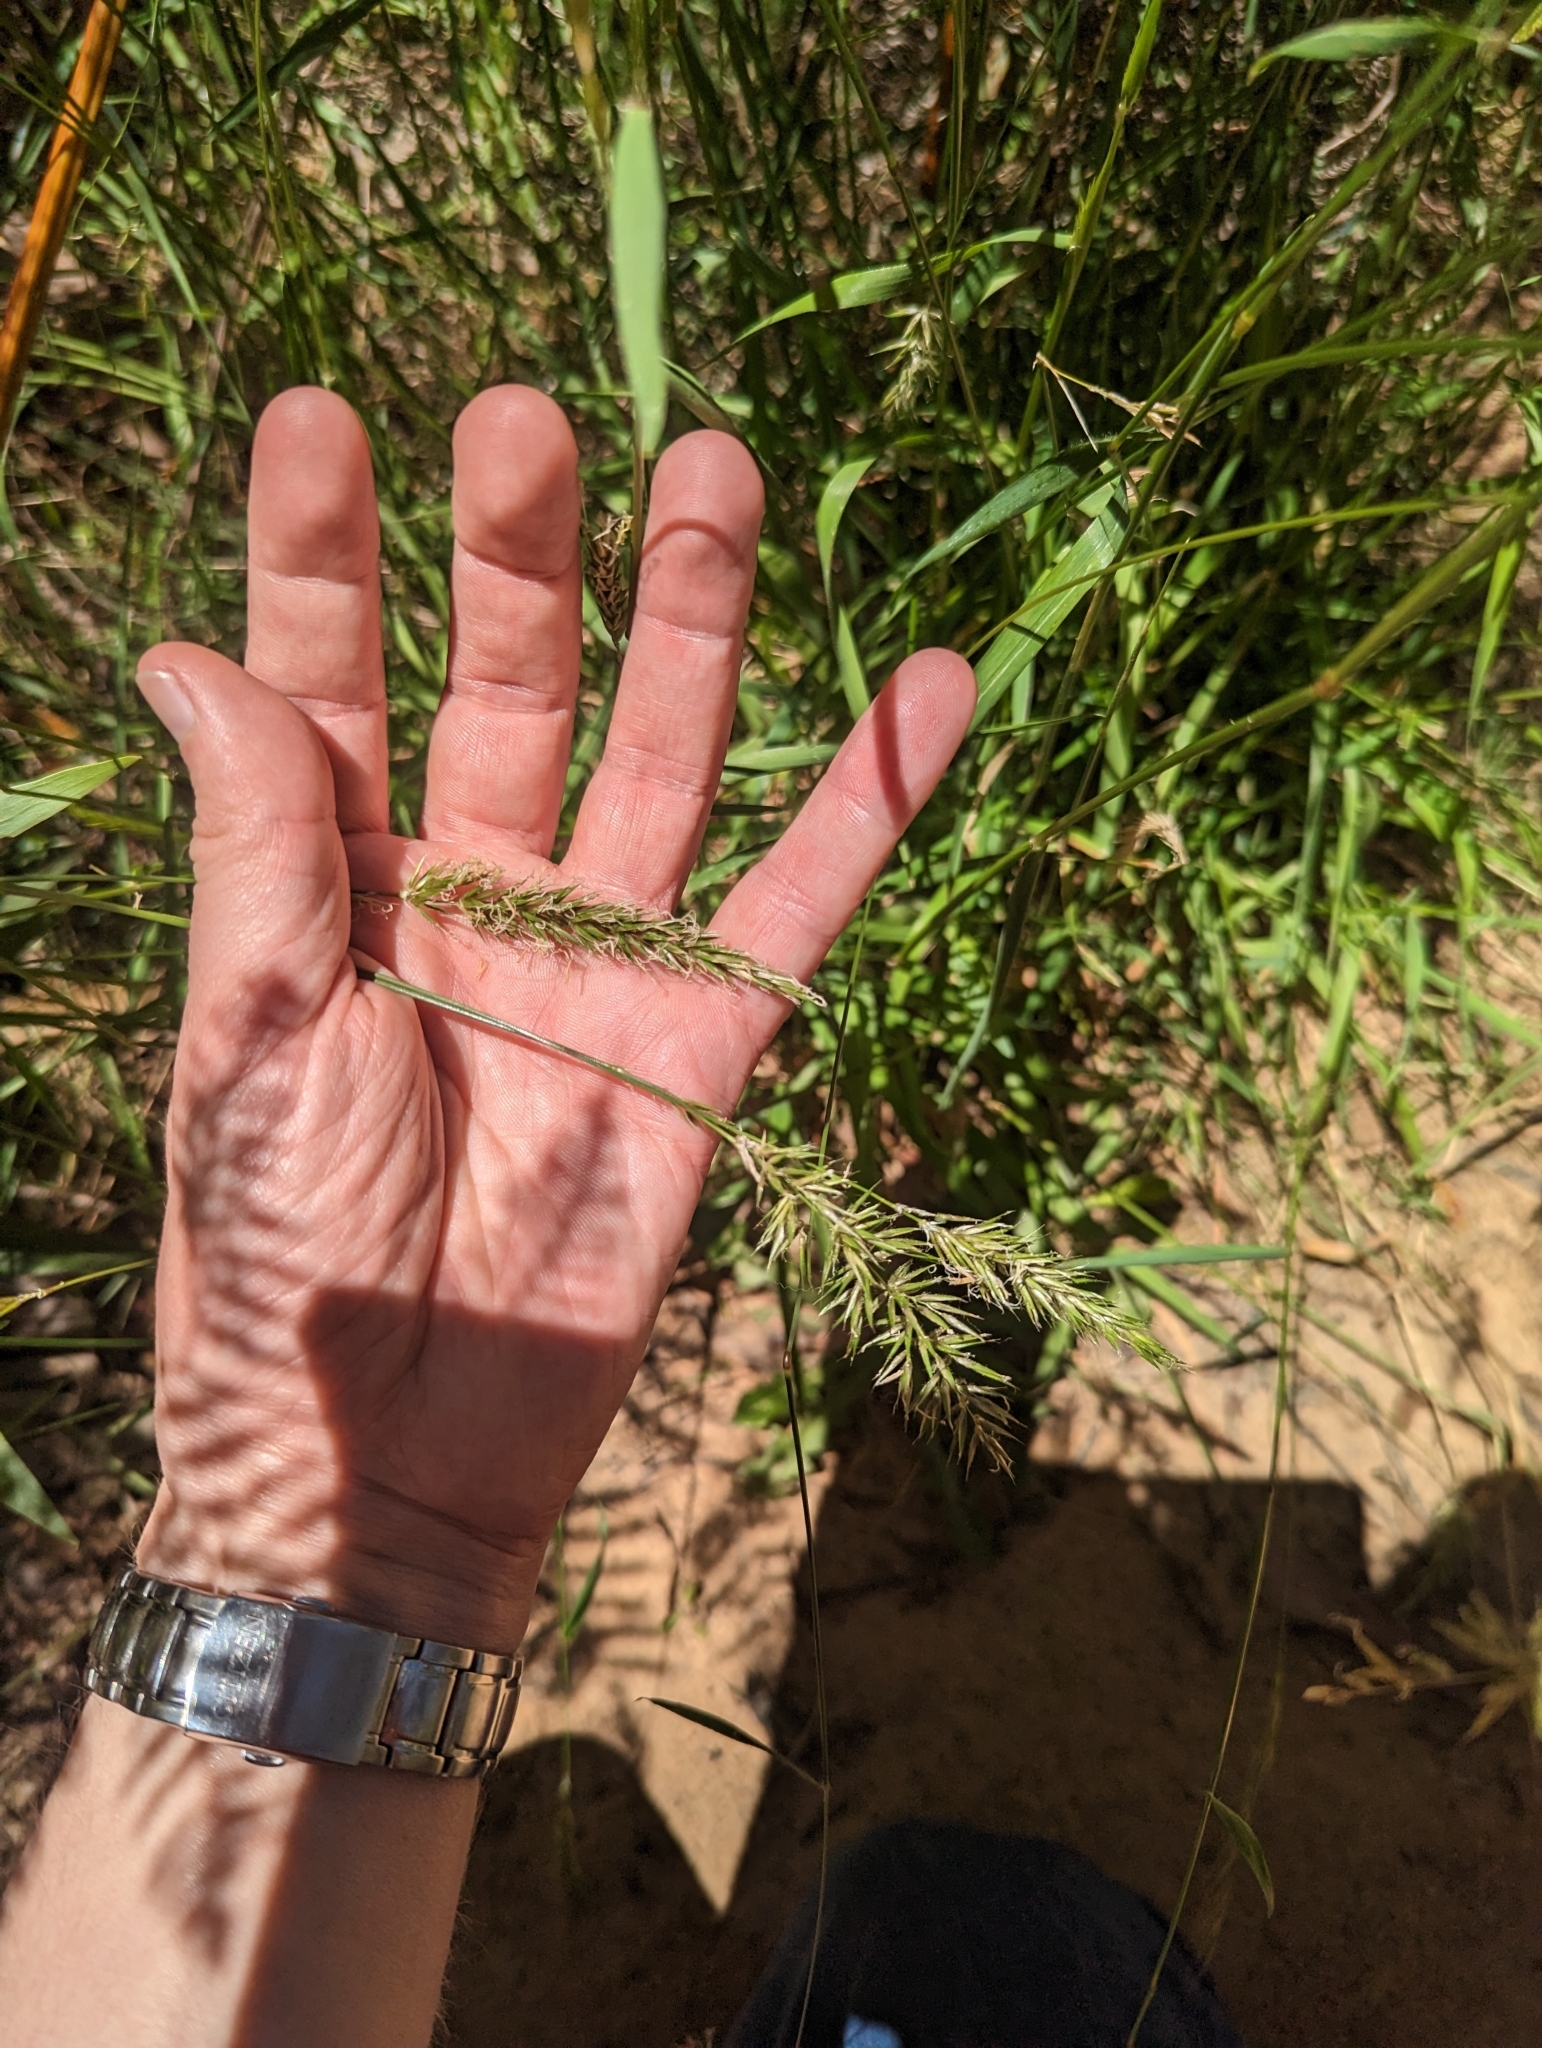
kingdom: Plantae
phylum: Tracheophyta
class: Liliopsida
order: Poales
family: Poaceae
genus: Anthoxanthum
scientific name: Anthoxanthum odoratum
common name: Sweet vernalgrass
